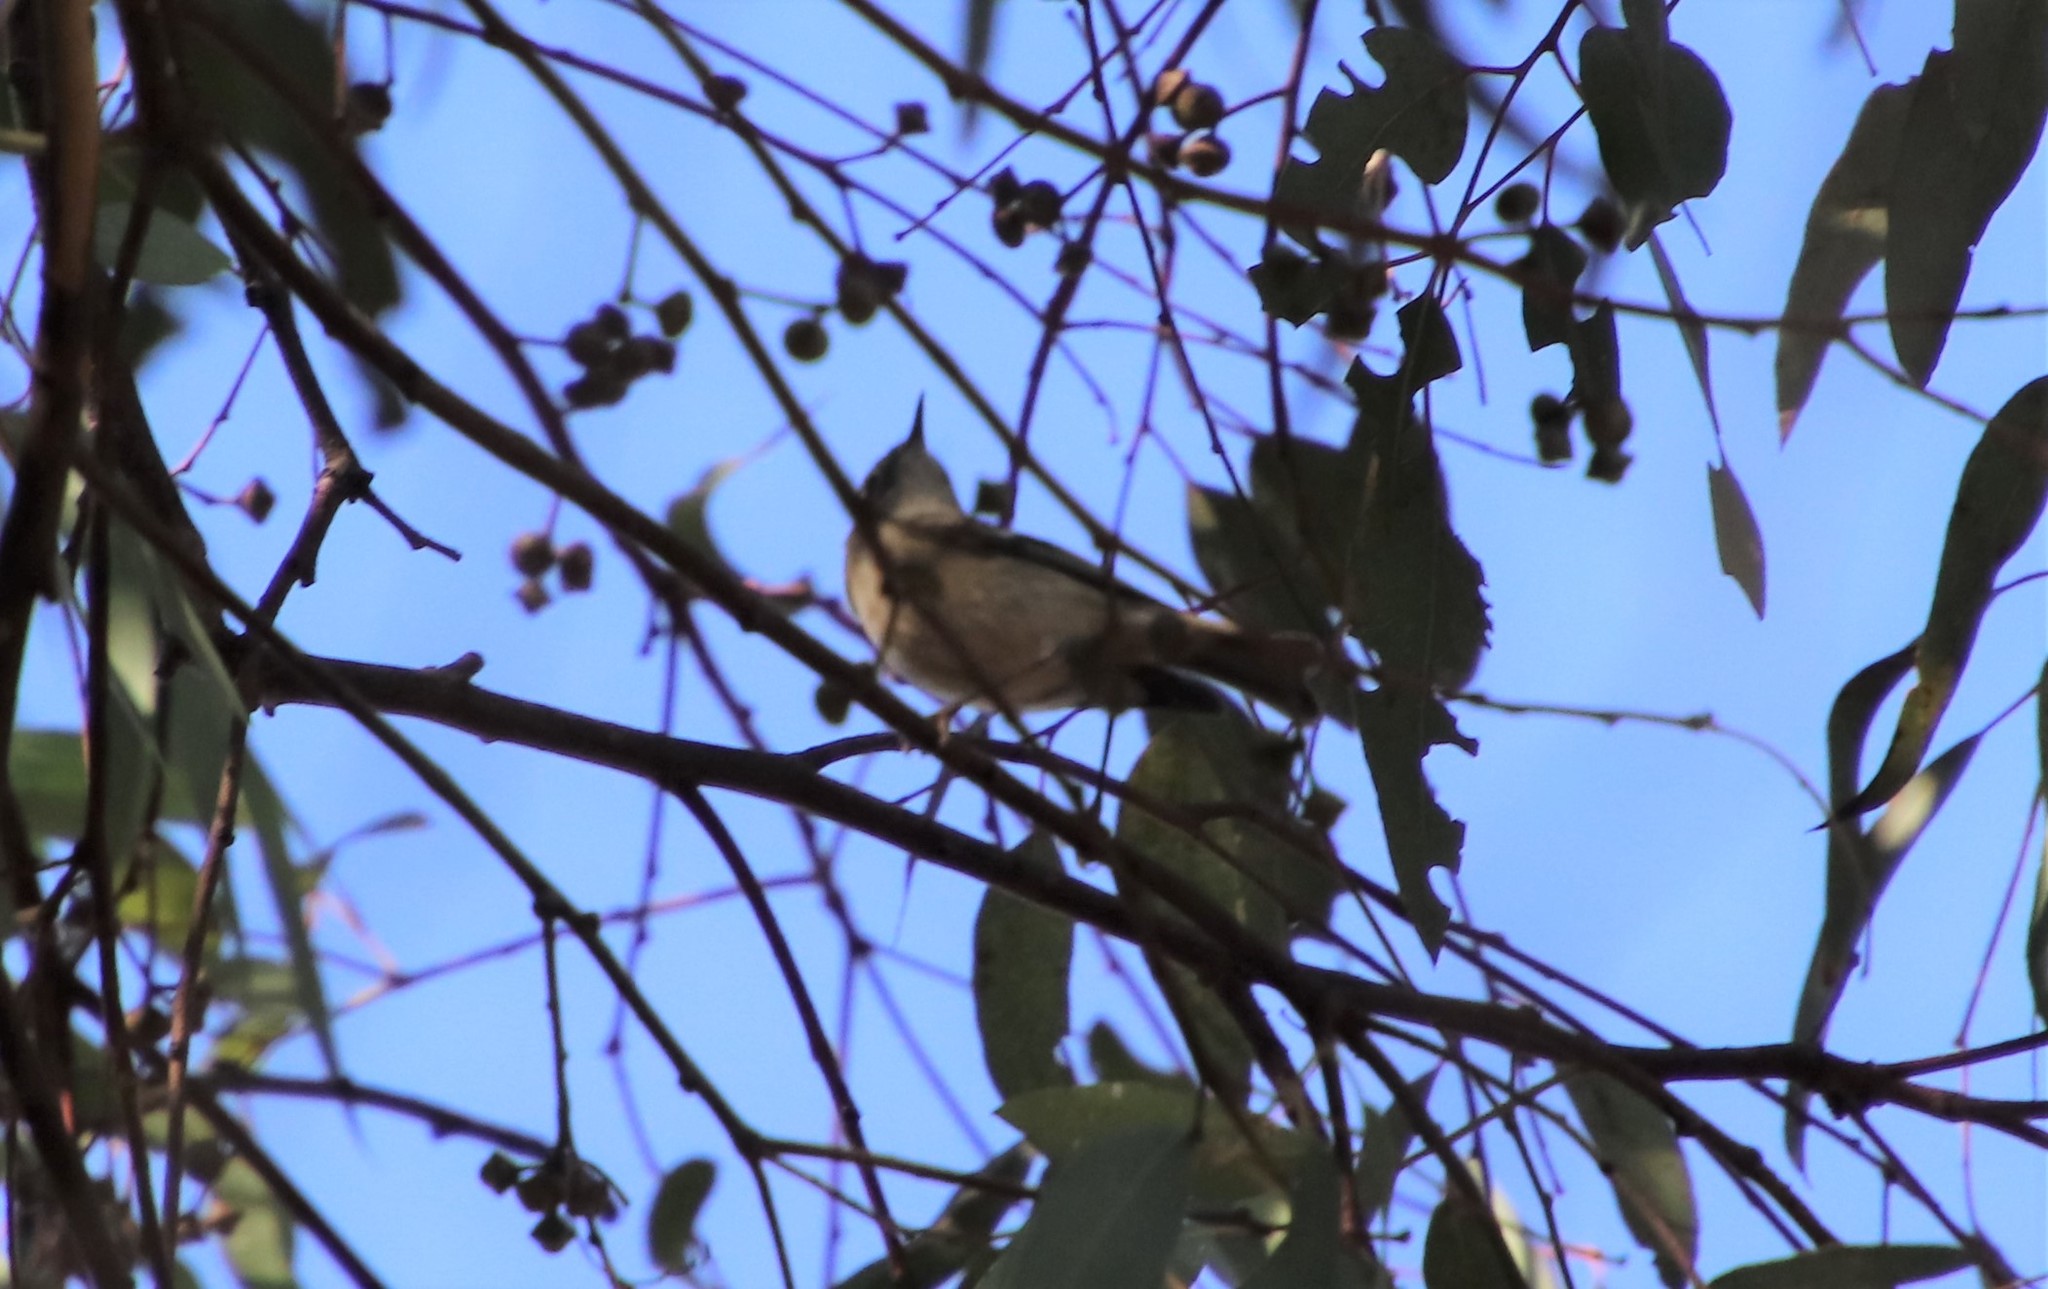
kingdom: Animalia
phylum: Chordata
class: Aves
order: Passeriformes
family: Parulidae
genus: Setophaga
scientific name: Setophaga auduboni
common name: Audubon's warbler
